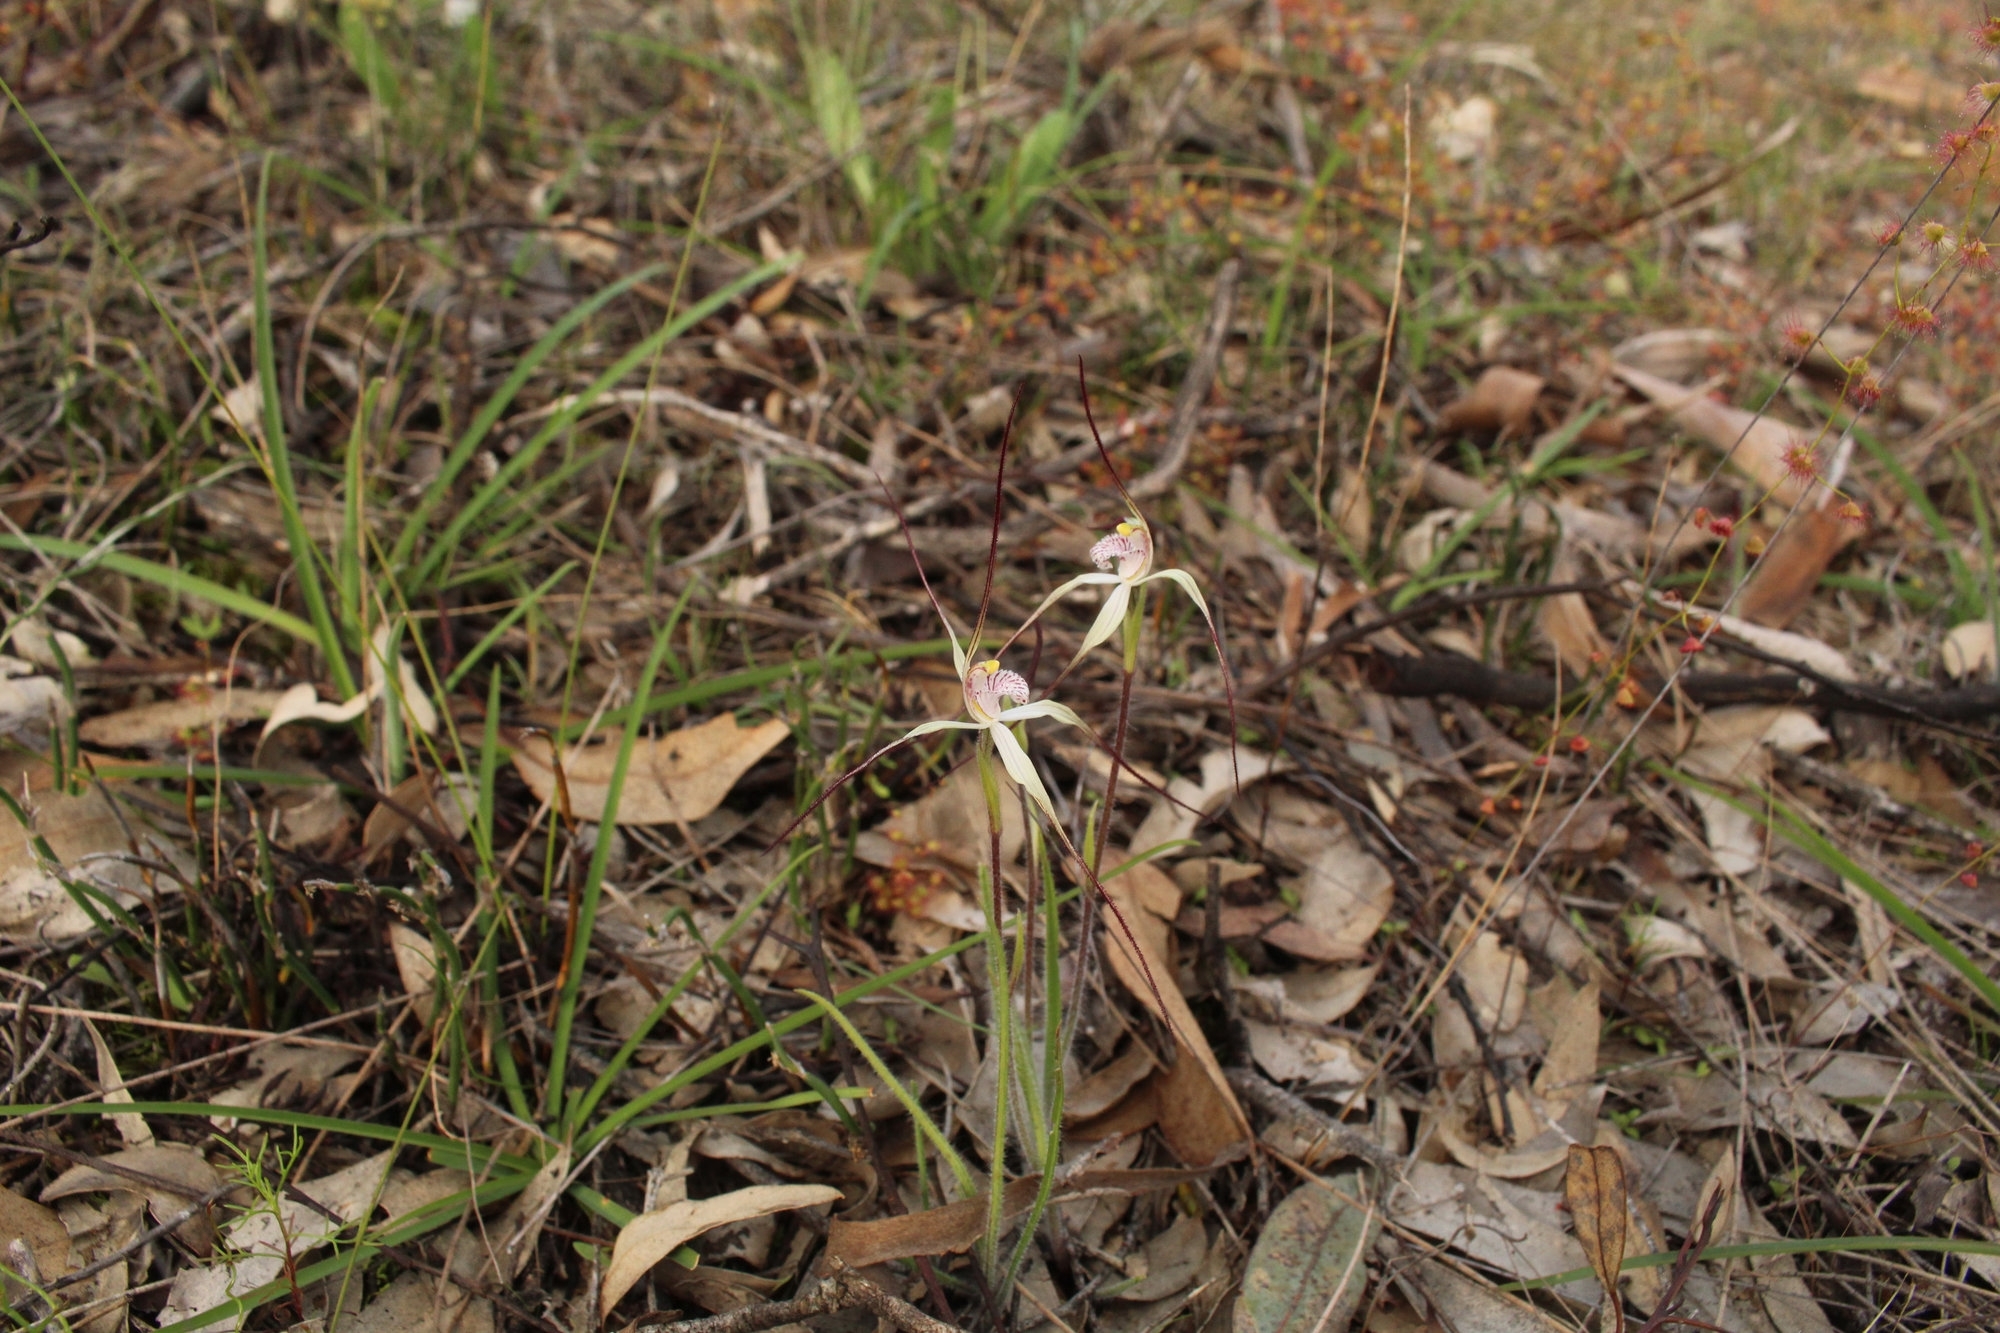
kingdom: Plantae
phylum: Tracheophyta
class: Liliopsida
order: Asparagales
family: Orchidaceae
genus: Caladenia
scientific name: Caladenia hiemalis
